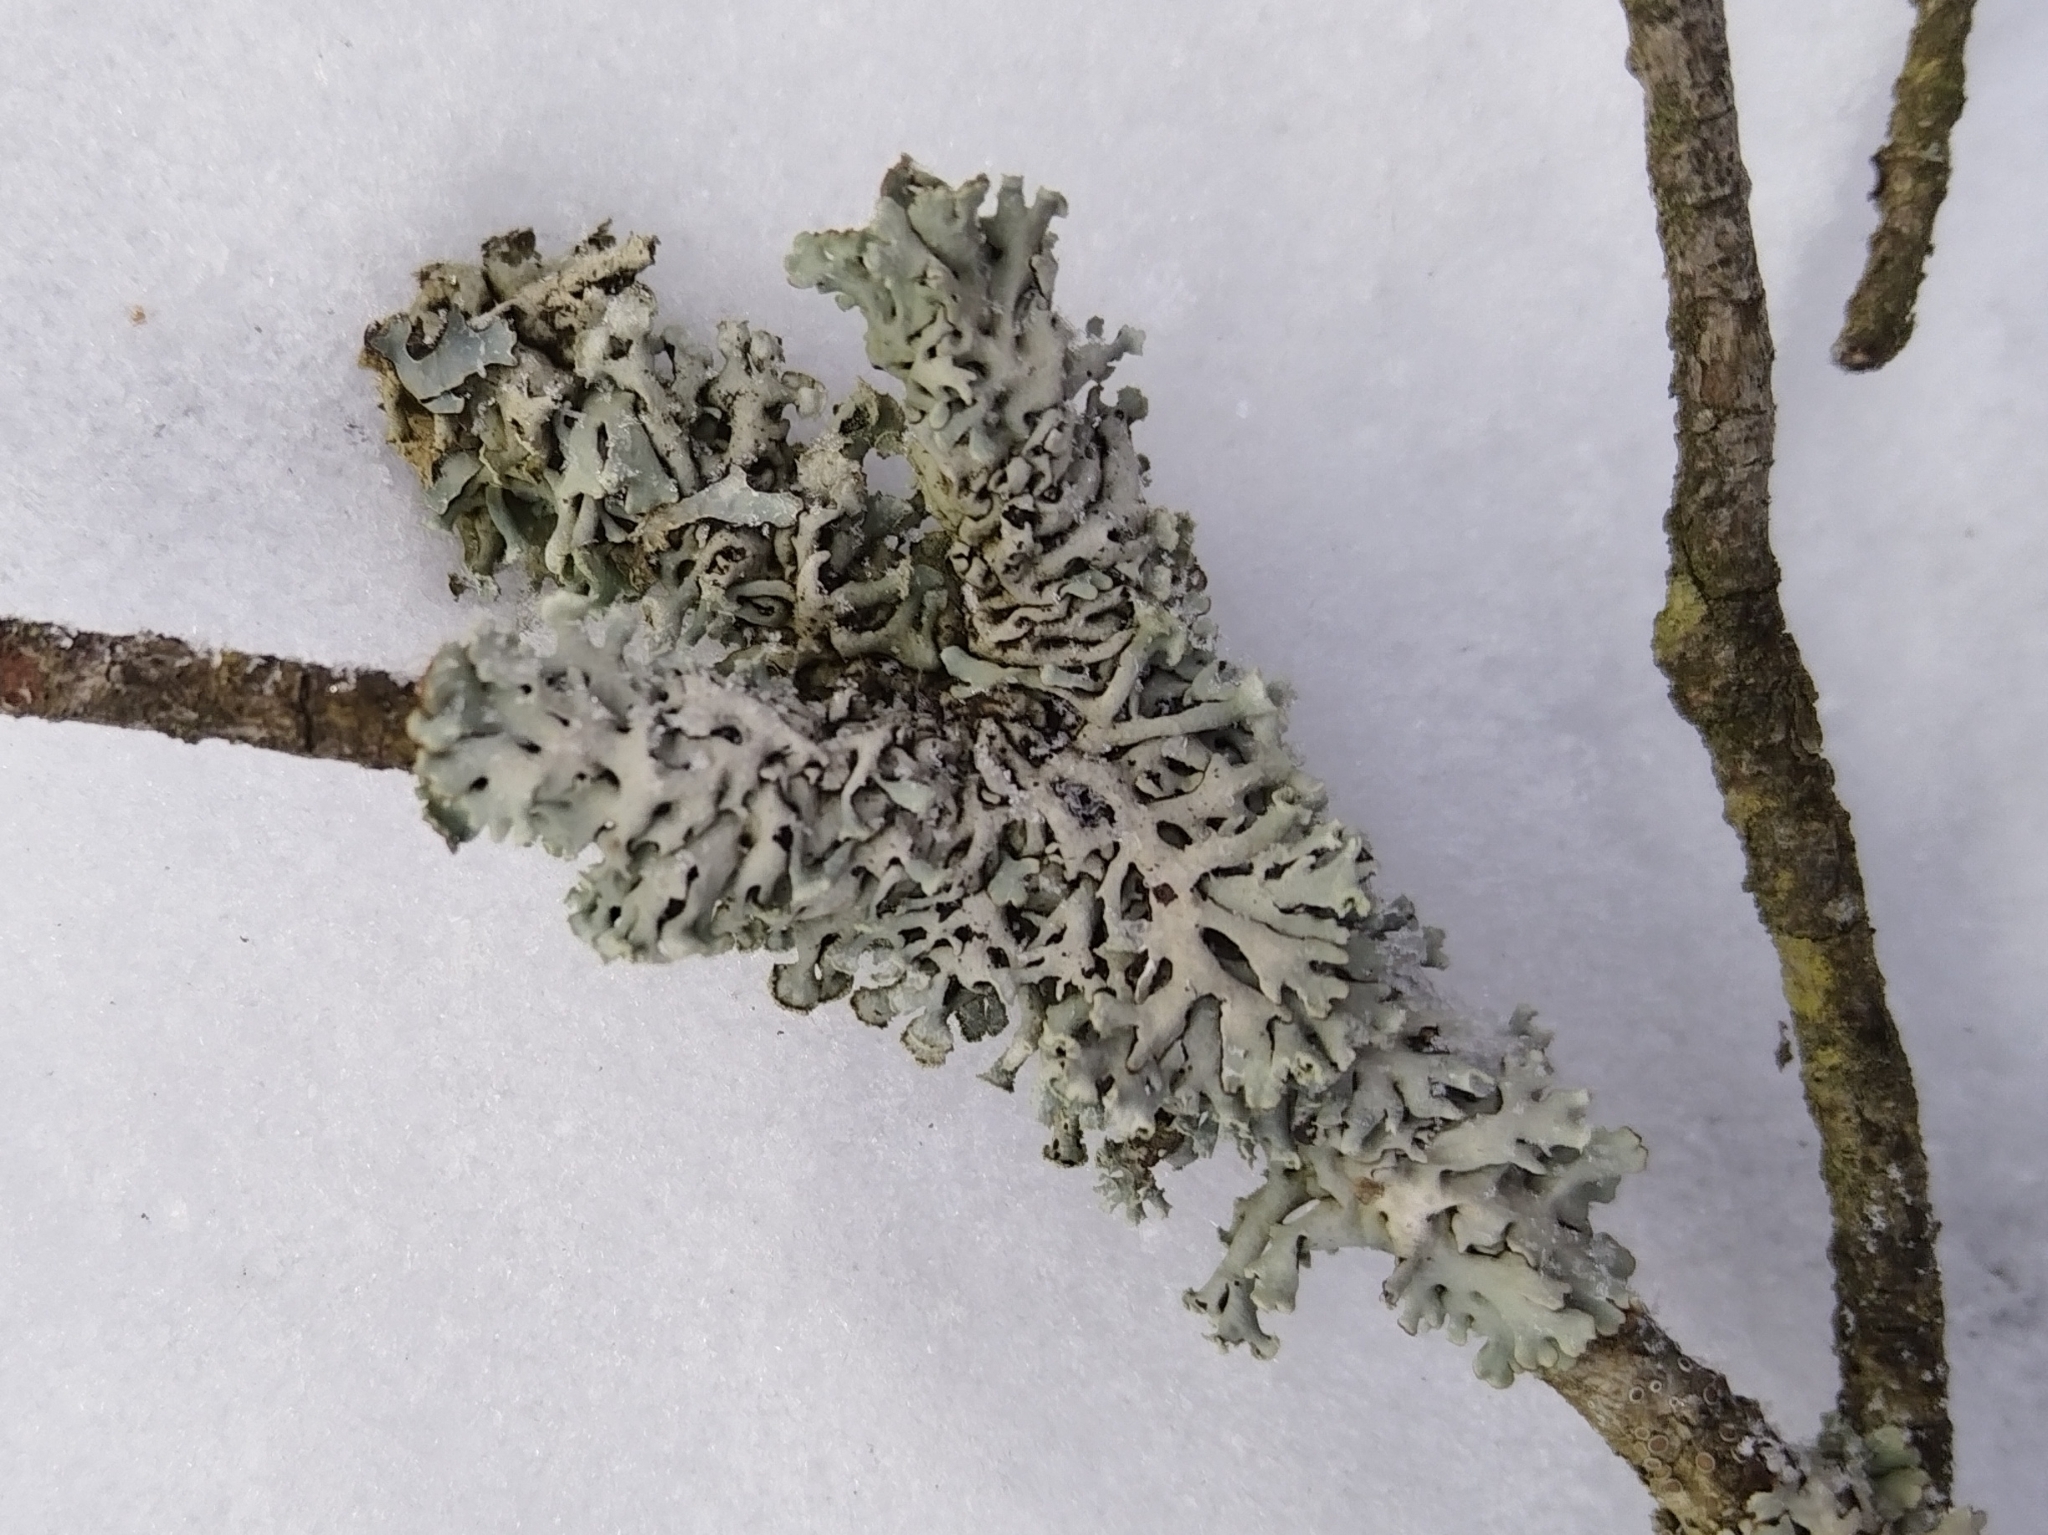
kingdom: Fungi
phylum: Ascomycota
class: Lecanoromycetes
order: Lecanorales
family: Parmeliaceae
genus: Hypogymnia
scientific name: Hypogymnia physodes
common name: Dark crottle
